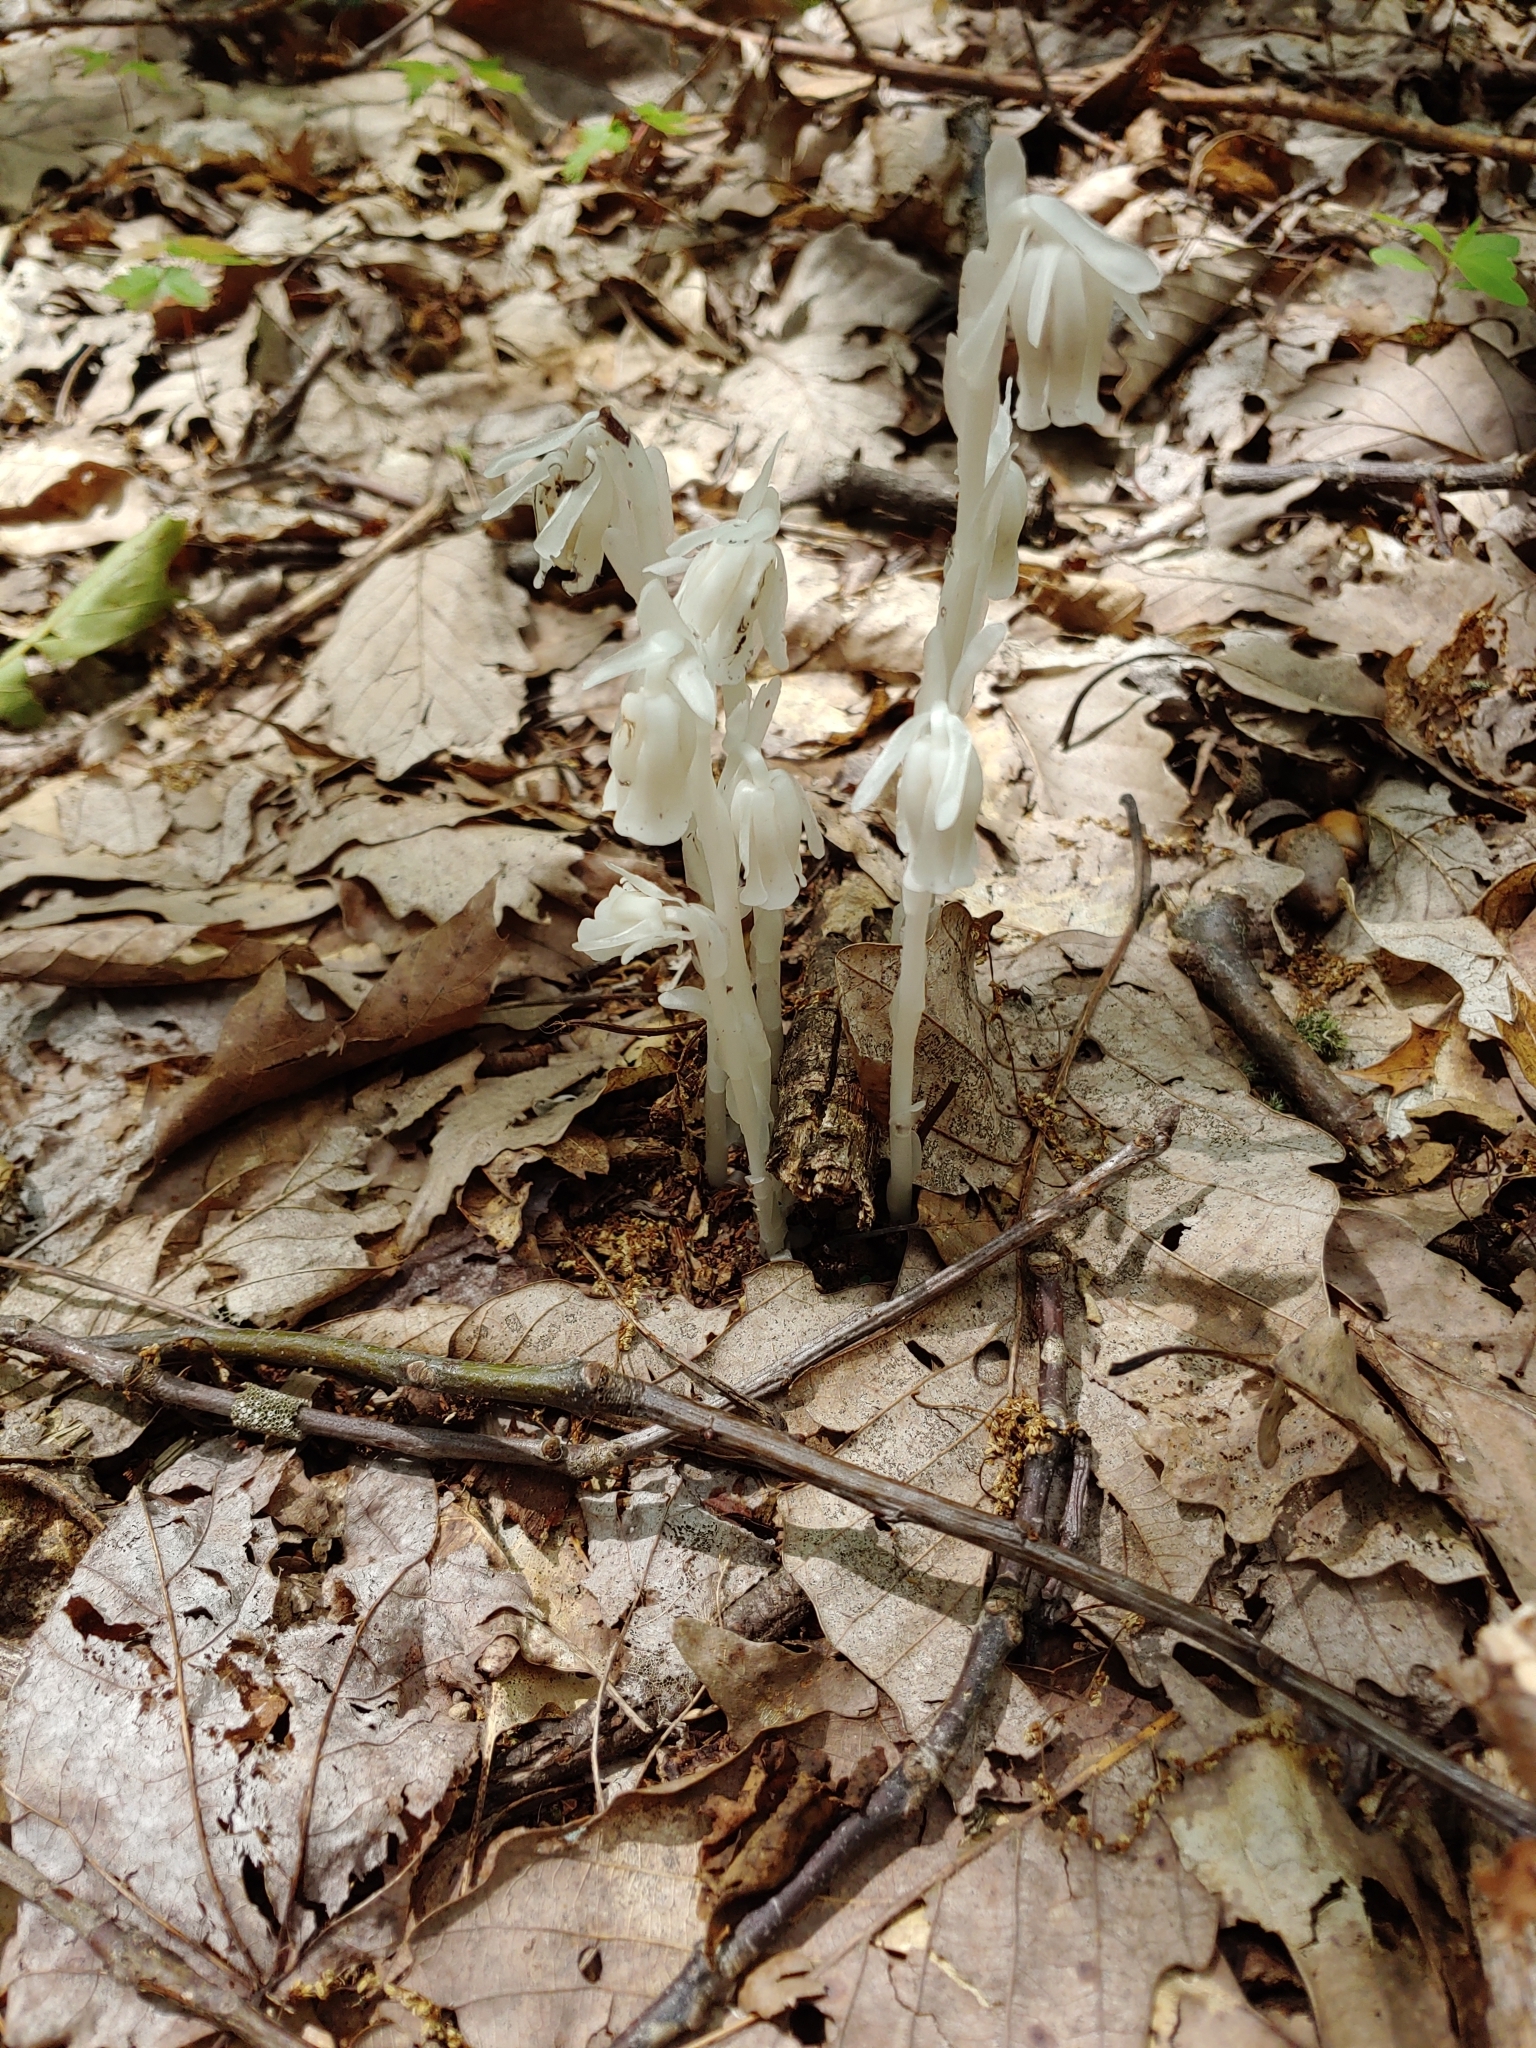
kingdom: Plantae
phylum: Tracheophyta
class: Magnoliopsida
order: Ericales
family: Ericaceae
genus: Monotropa
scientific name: Monotropa uniflora
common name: Convulsion root
